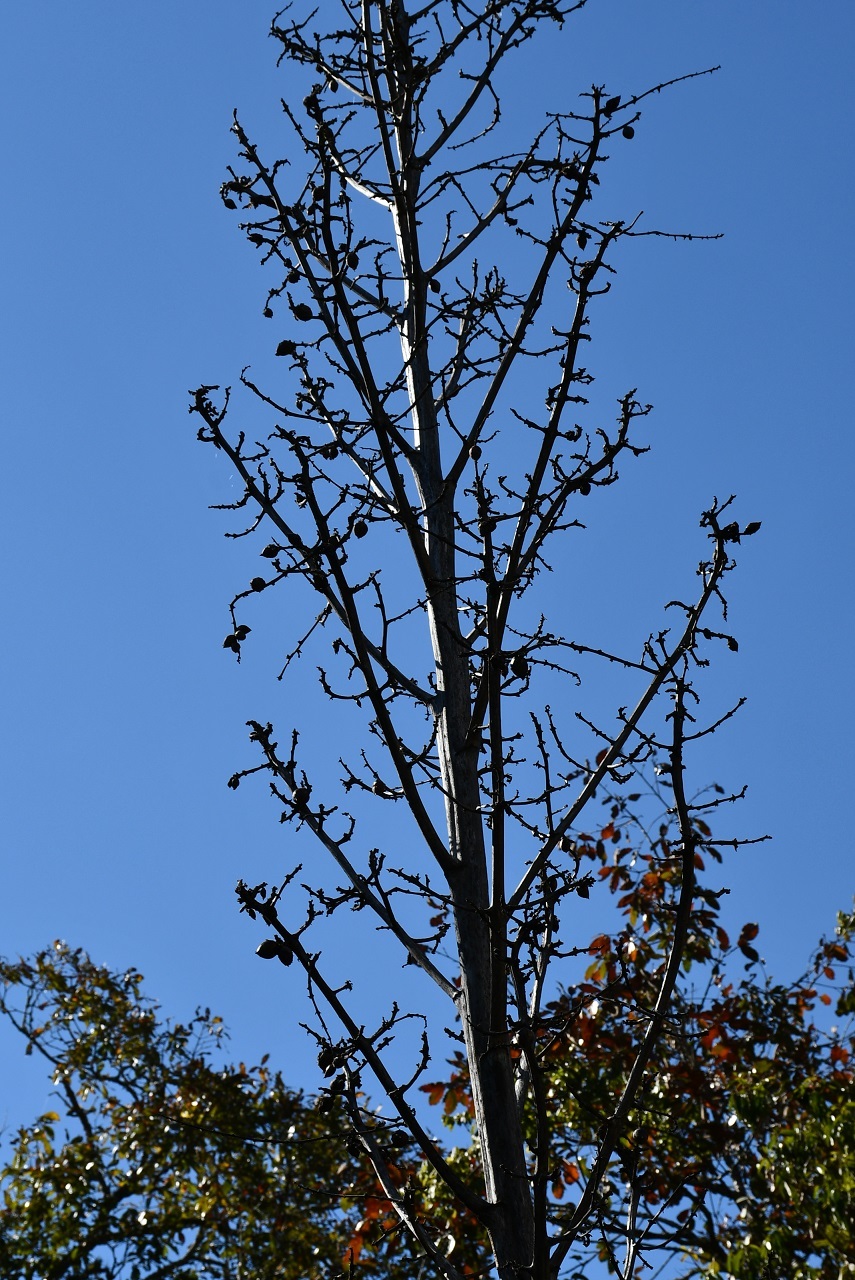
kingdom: Plantae
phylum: Tracheophyta
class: Liliopsida
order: Asparagales
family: Asparagaceae
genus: Furcraea
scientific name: Furcraea guatemalensis
